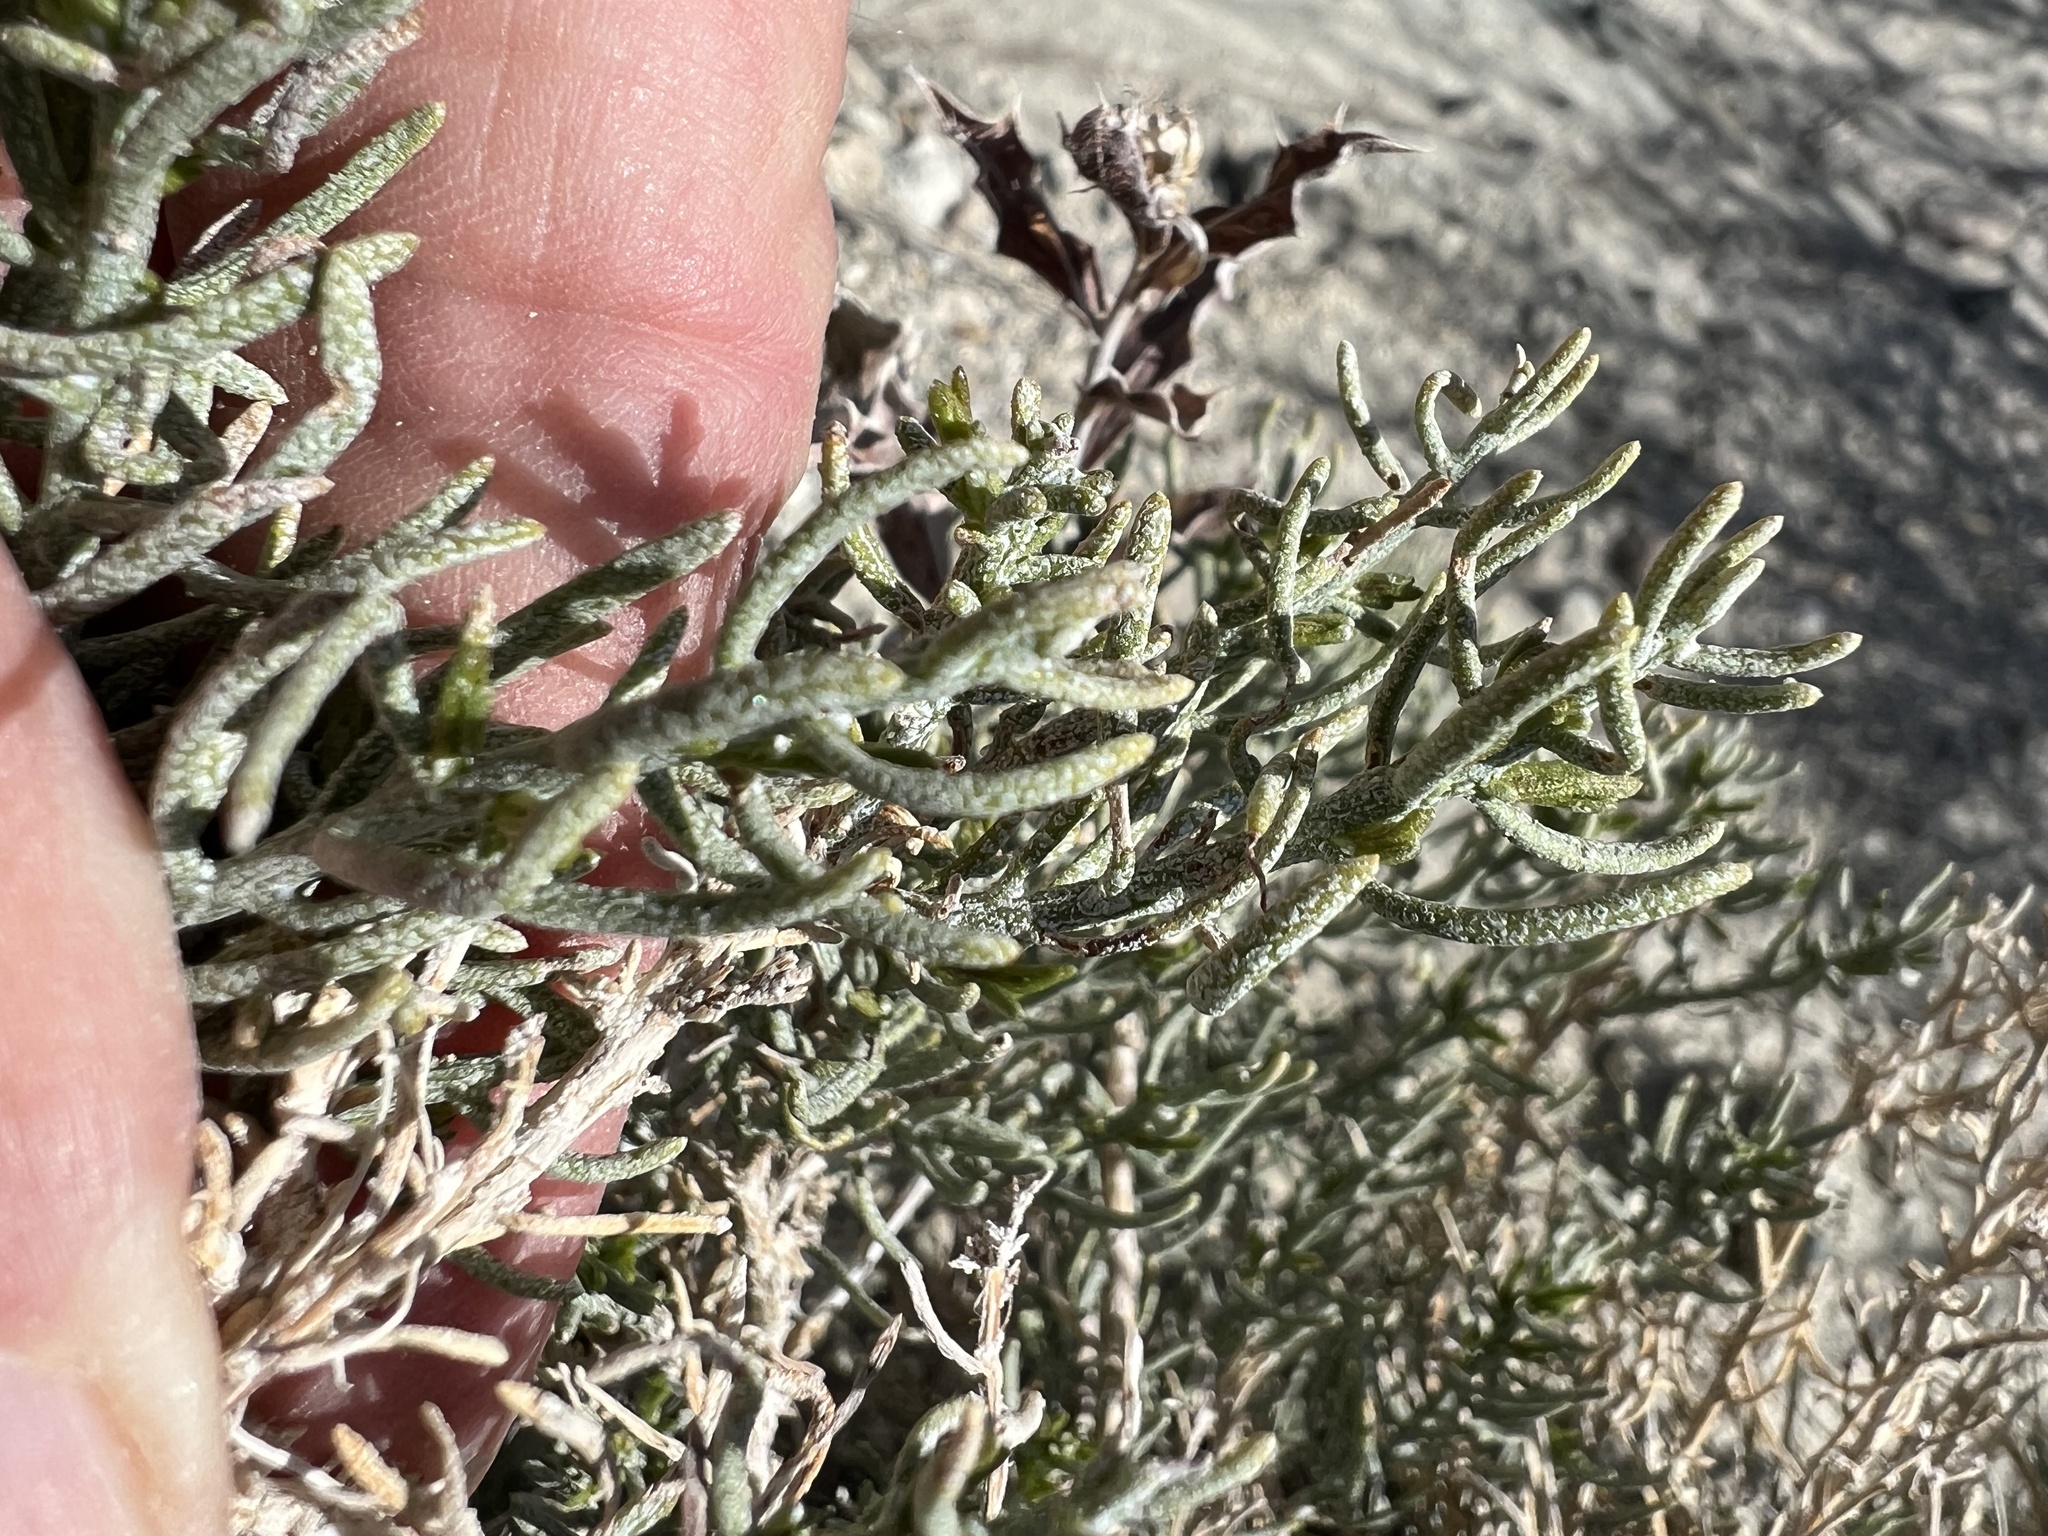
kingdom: Plantae
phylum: Tracheophyta
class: Magnoliopsida
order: Asterales
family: Asteraceae
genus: Ericameria
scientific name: Ericameria teretifolia
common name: Round-leaf rabbitbrush
